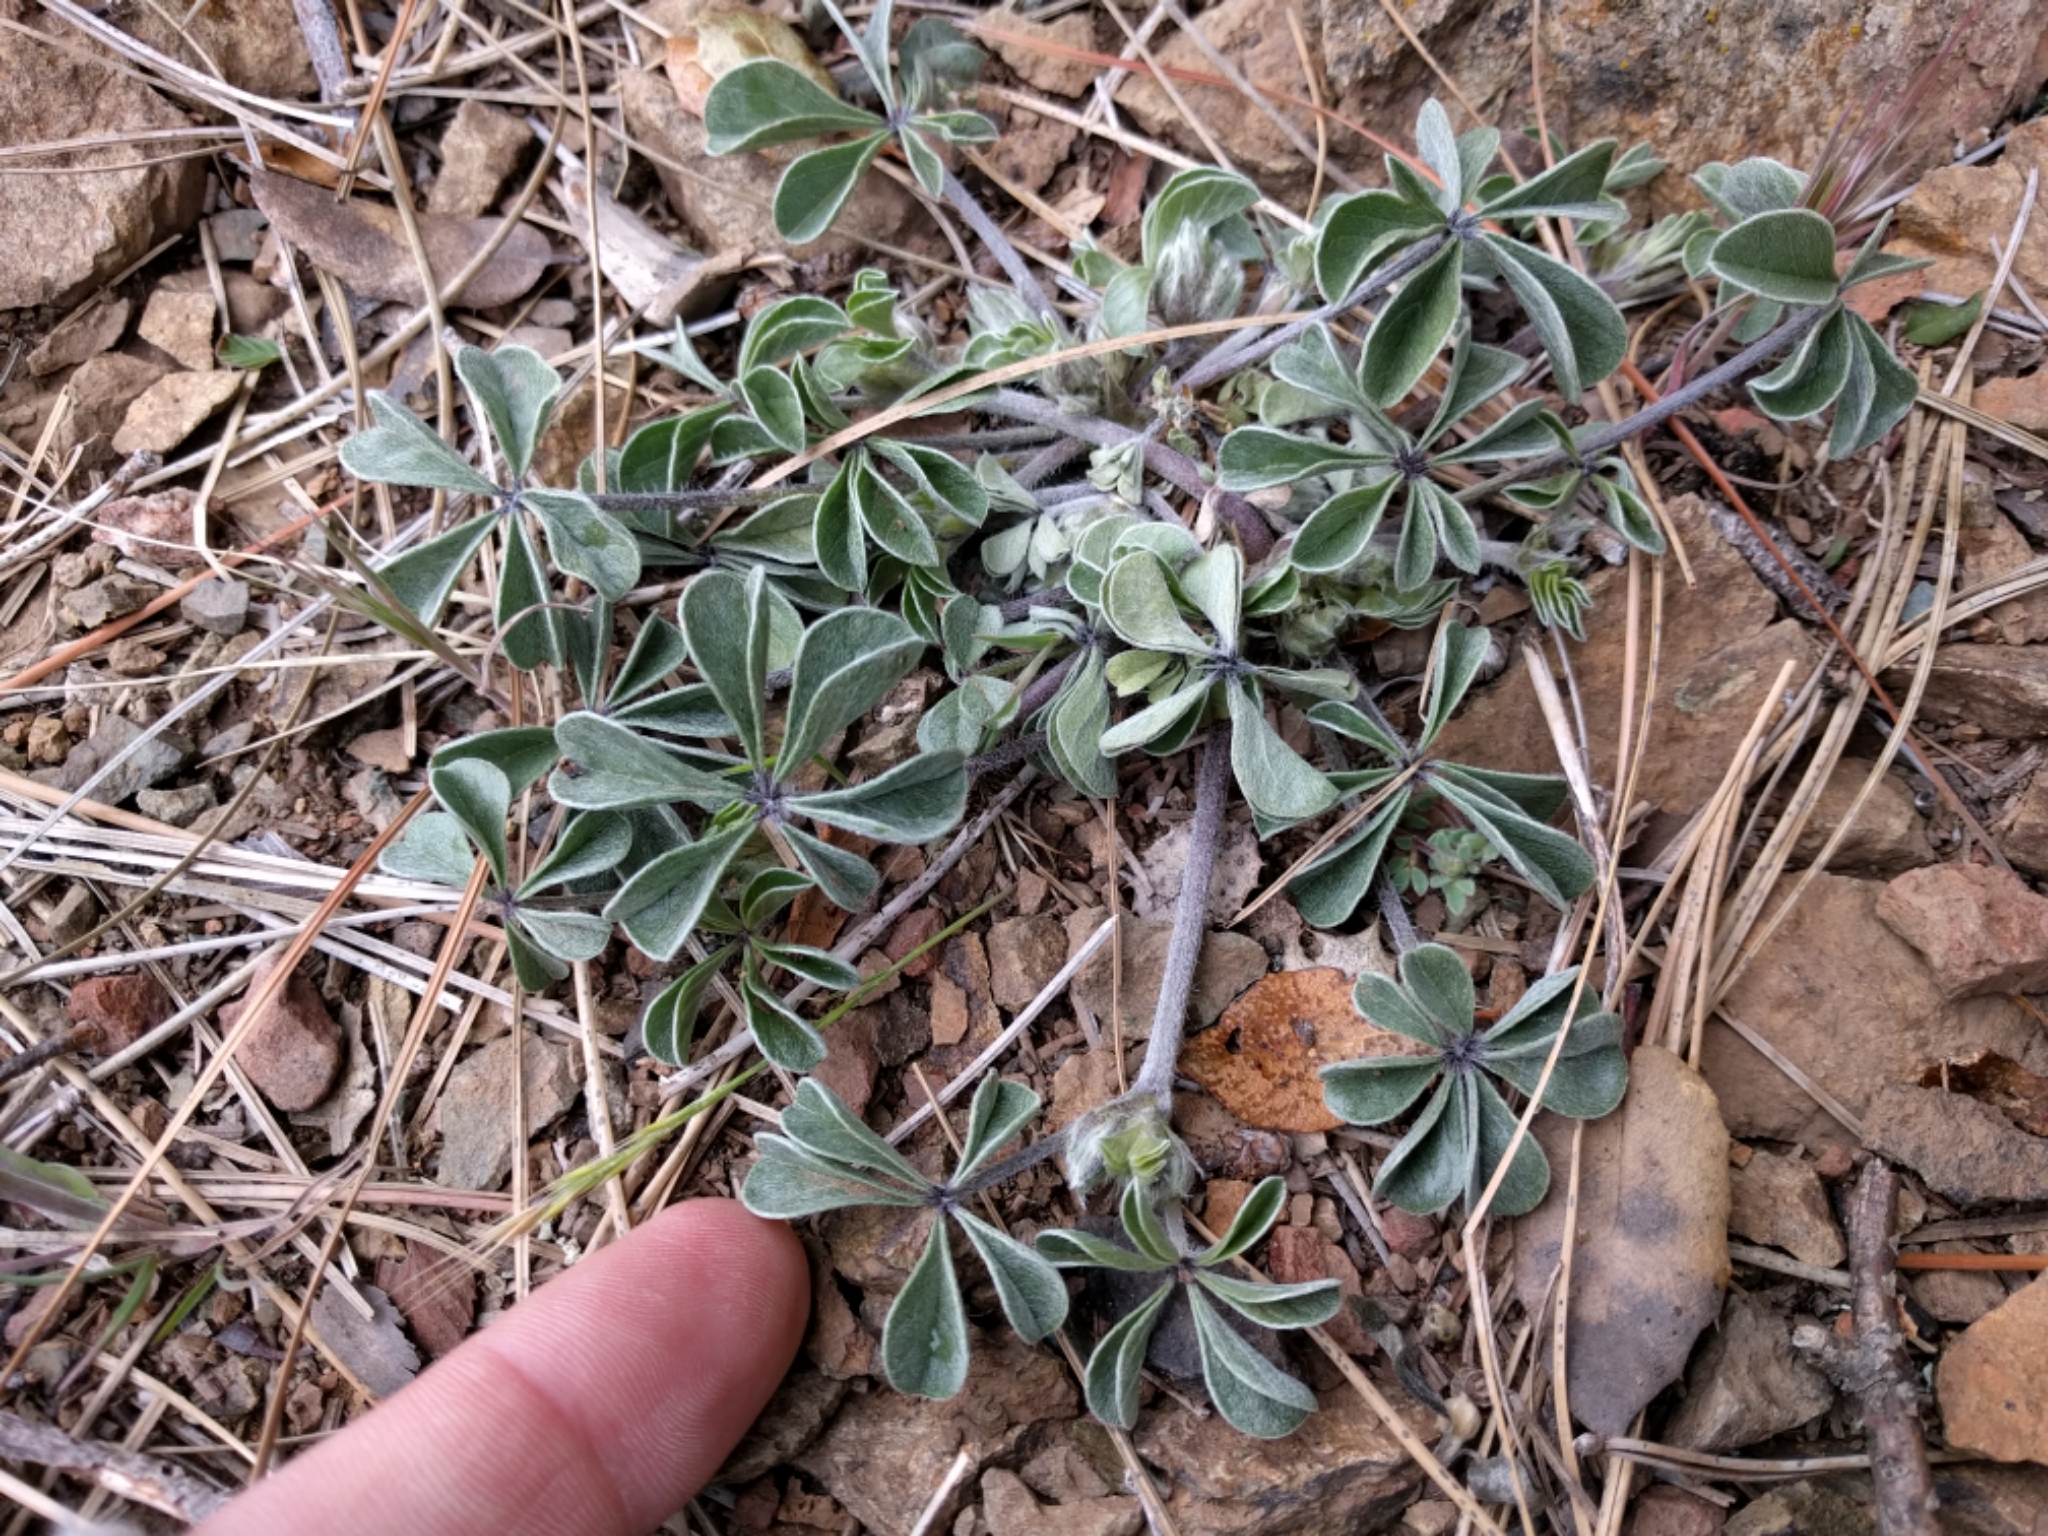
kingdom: Plantae
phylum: Tracheophyta
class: Magnoliopsida
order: Fabales
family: Fabaceae
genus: Pediomelum
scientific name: Pediomelum californicum
